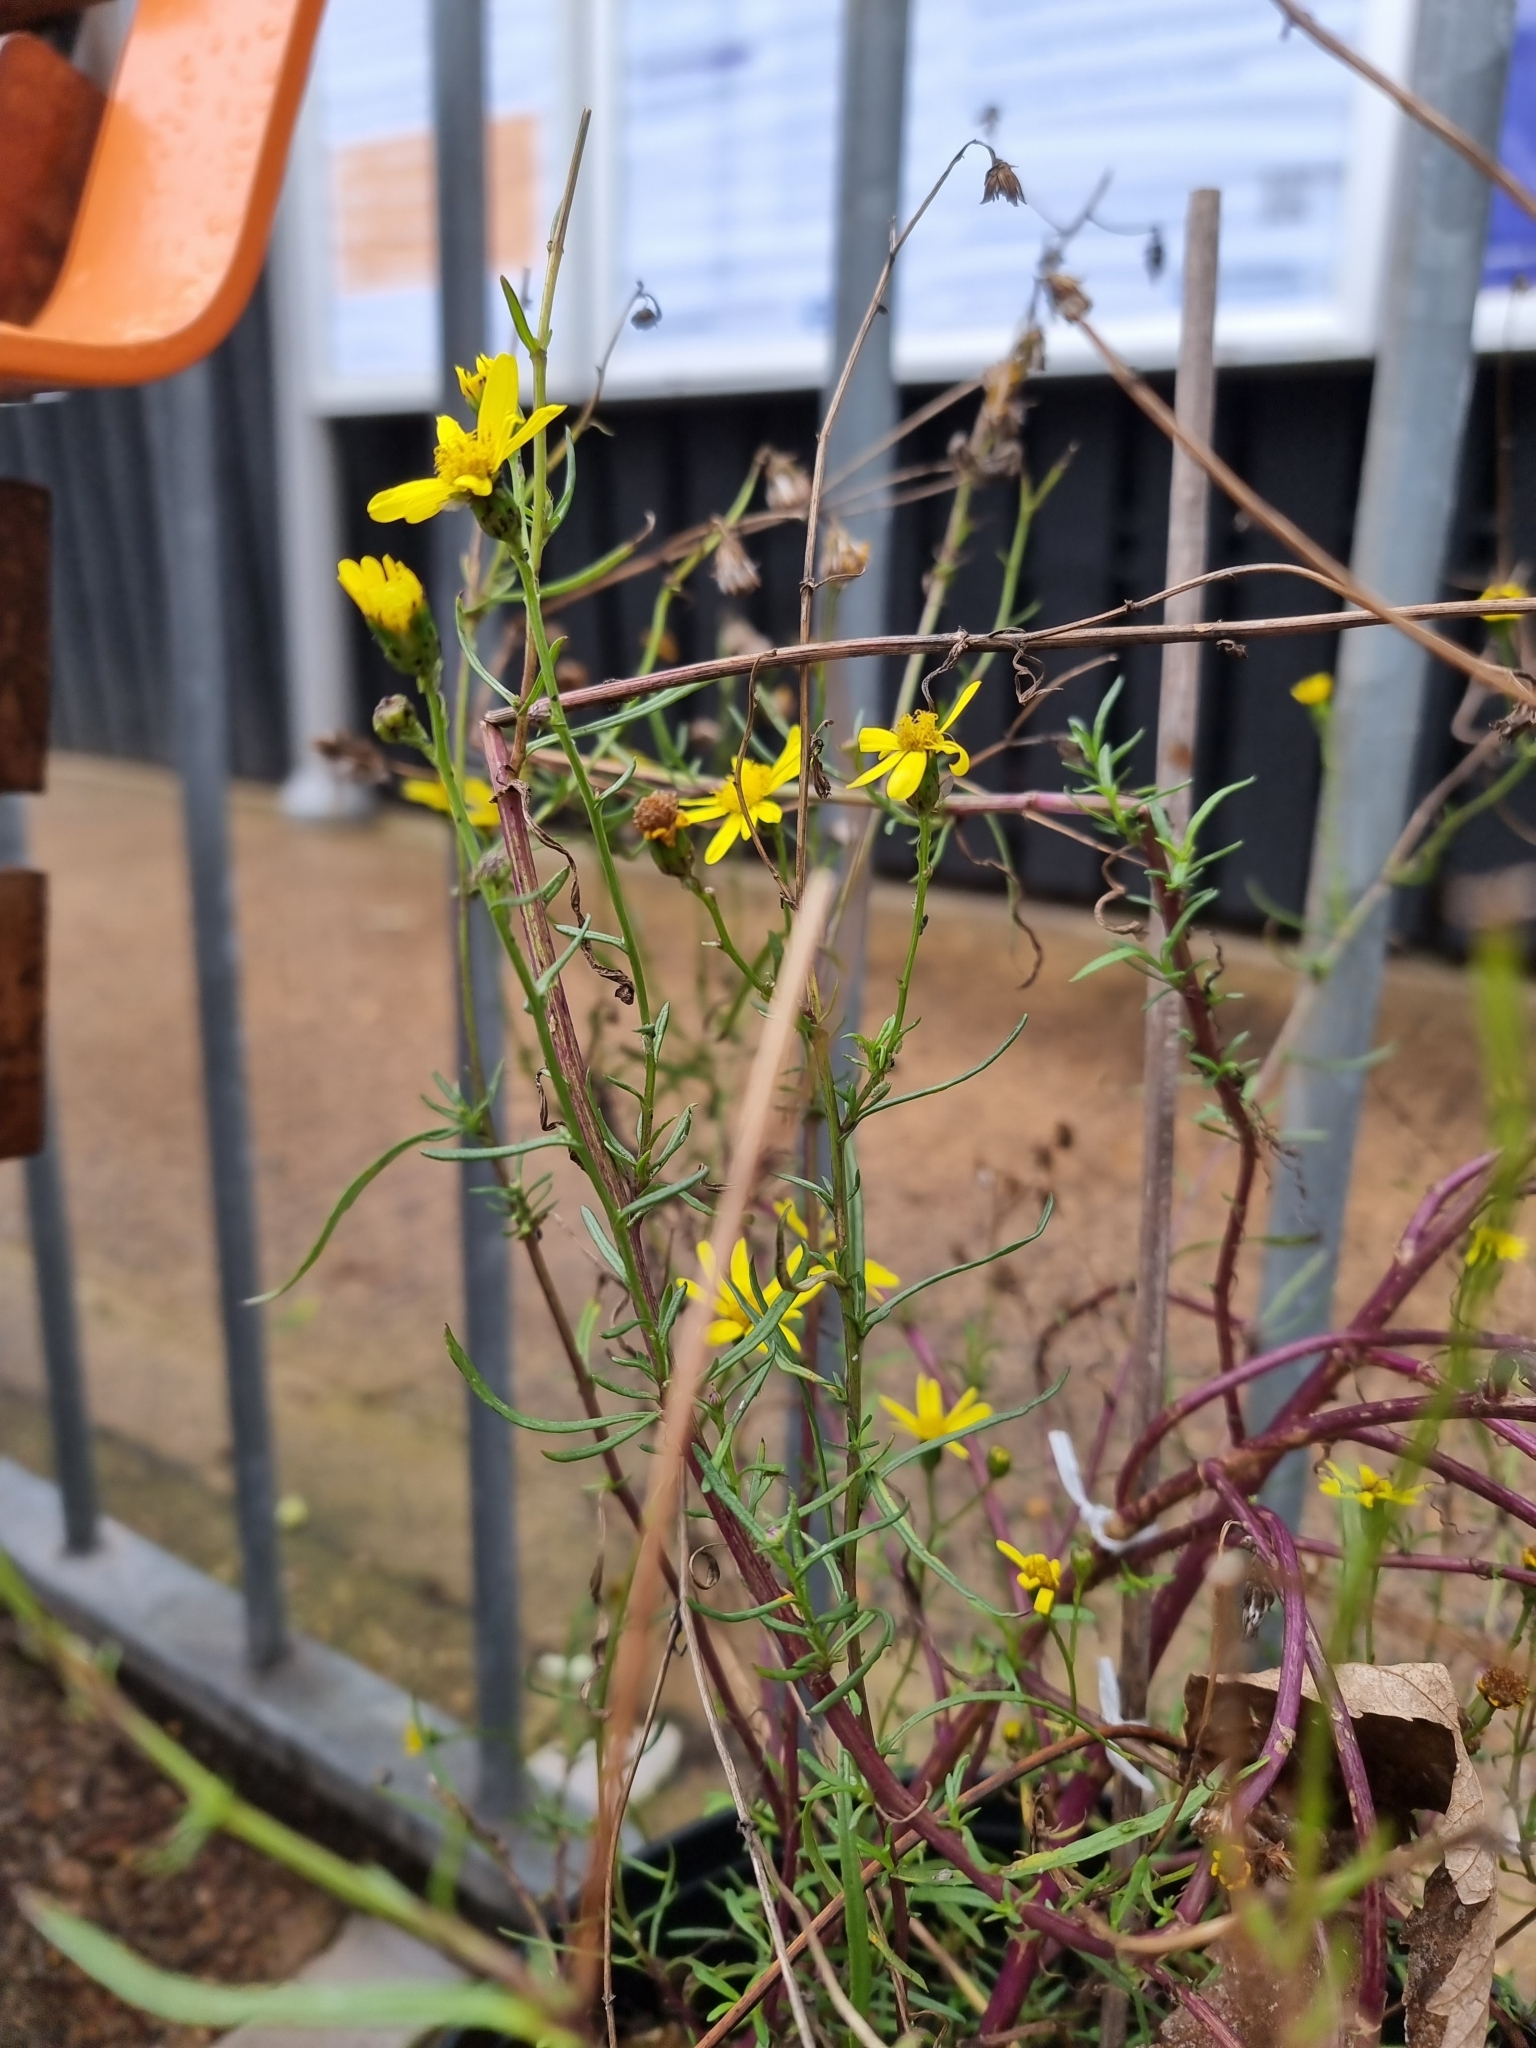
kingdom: Plantae
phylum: Tracheophyta
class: Magnoliopsida
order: Asterales
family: Asteraceae
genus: Senecio
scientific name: Senecio inaequidens
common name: Narrow-leaved ragwort
